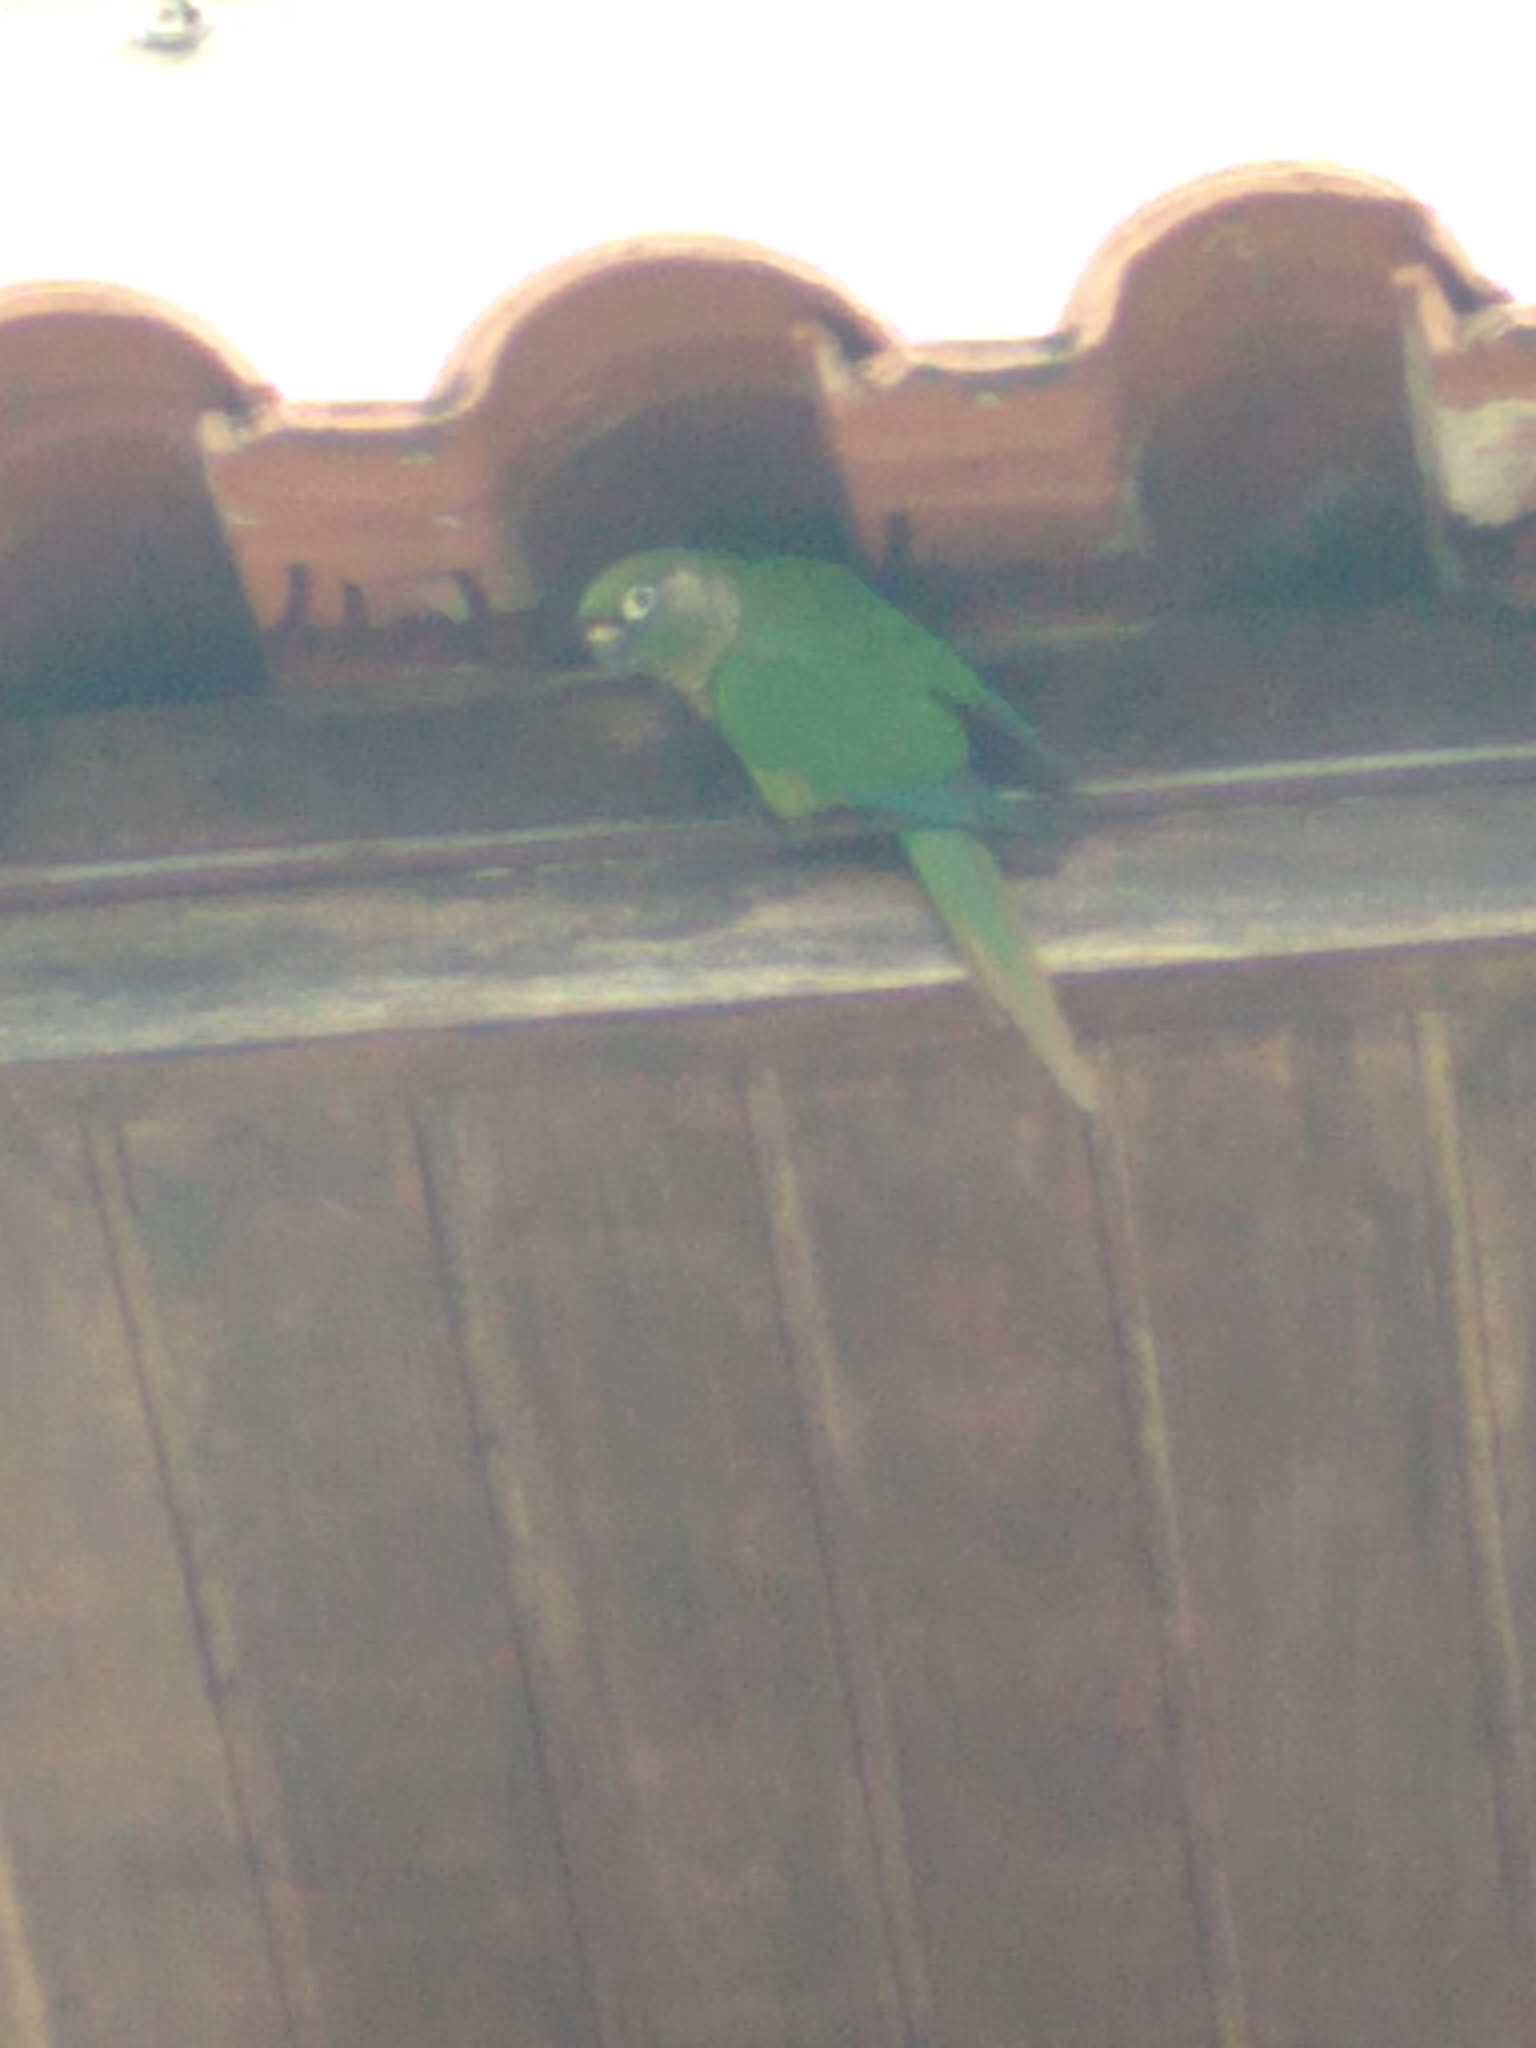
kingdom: Animalia
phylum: Chordata
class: Aves
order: Psittaciformes
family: Psittacidae
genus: Pyrrhura
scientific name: Pyrrhura frontalis
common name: Maroon-bellied parakeet
